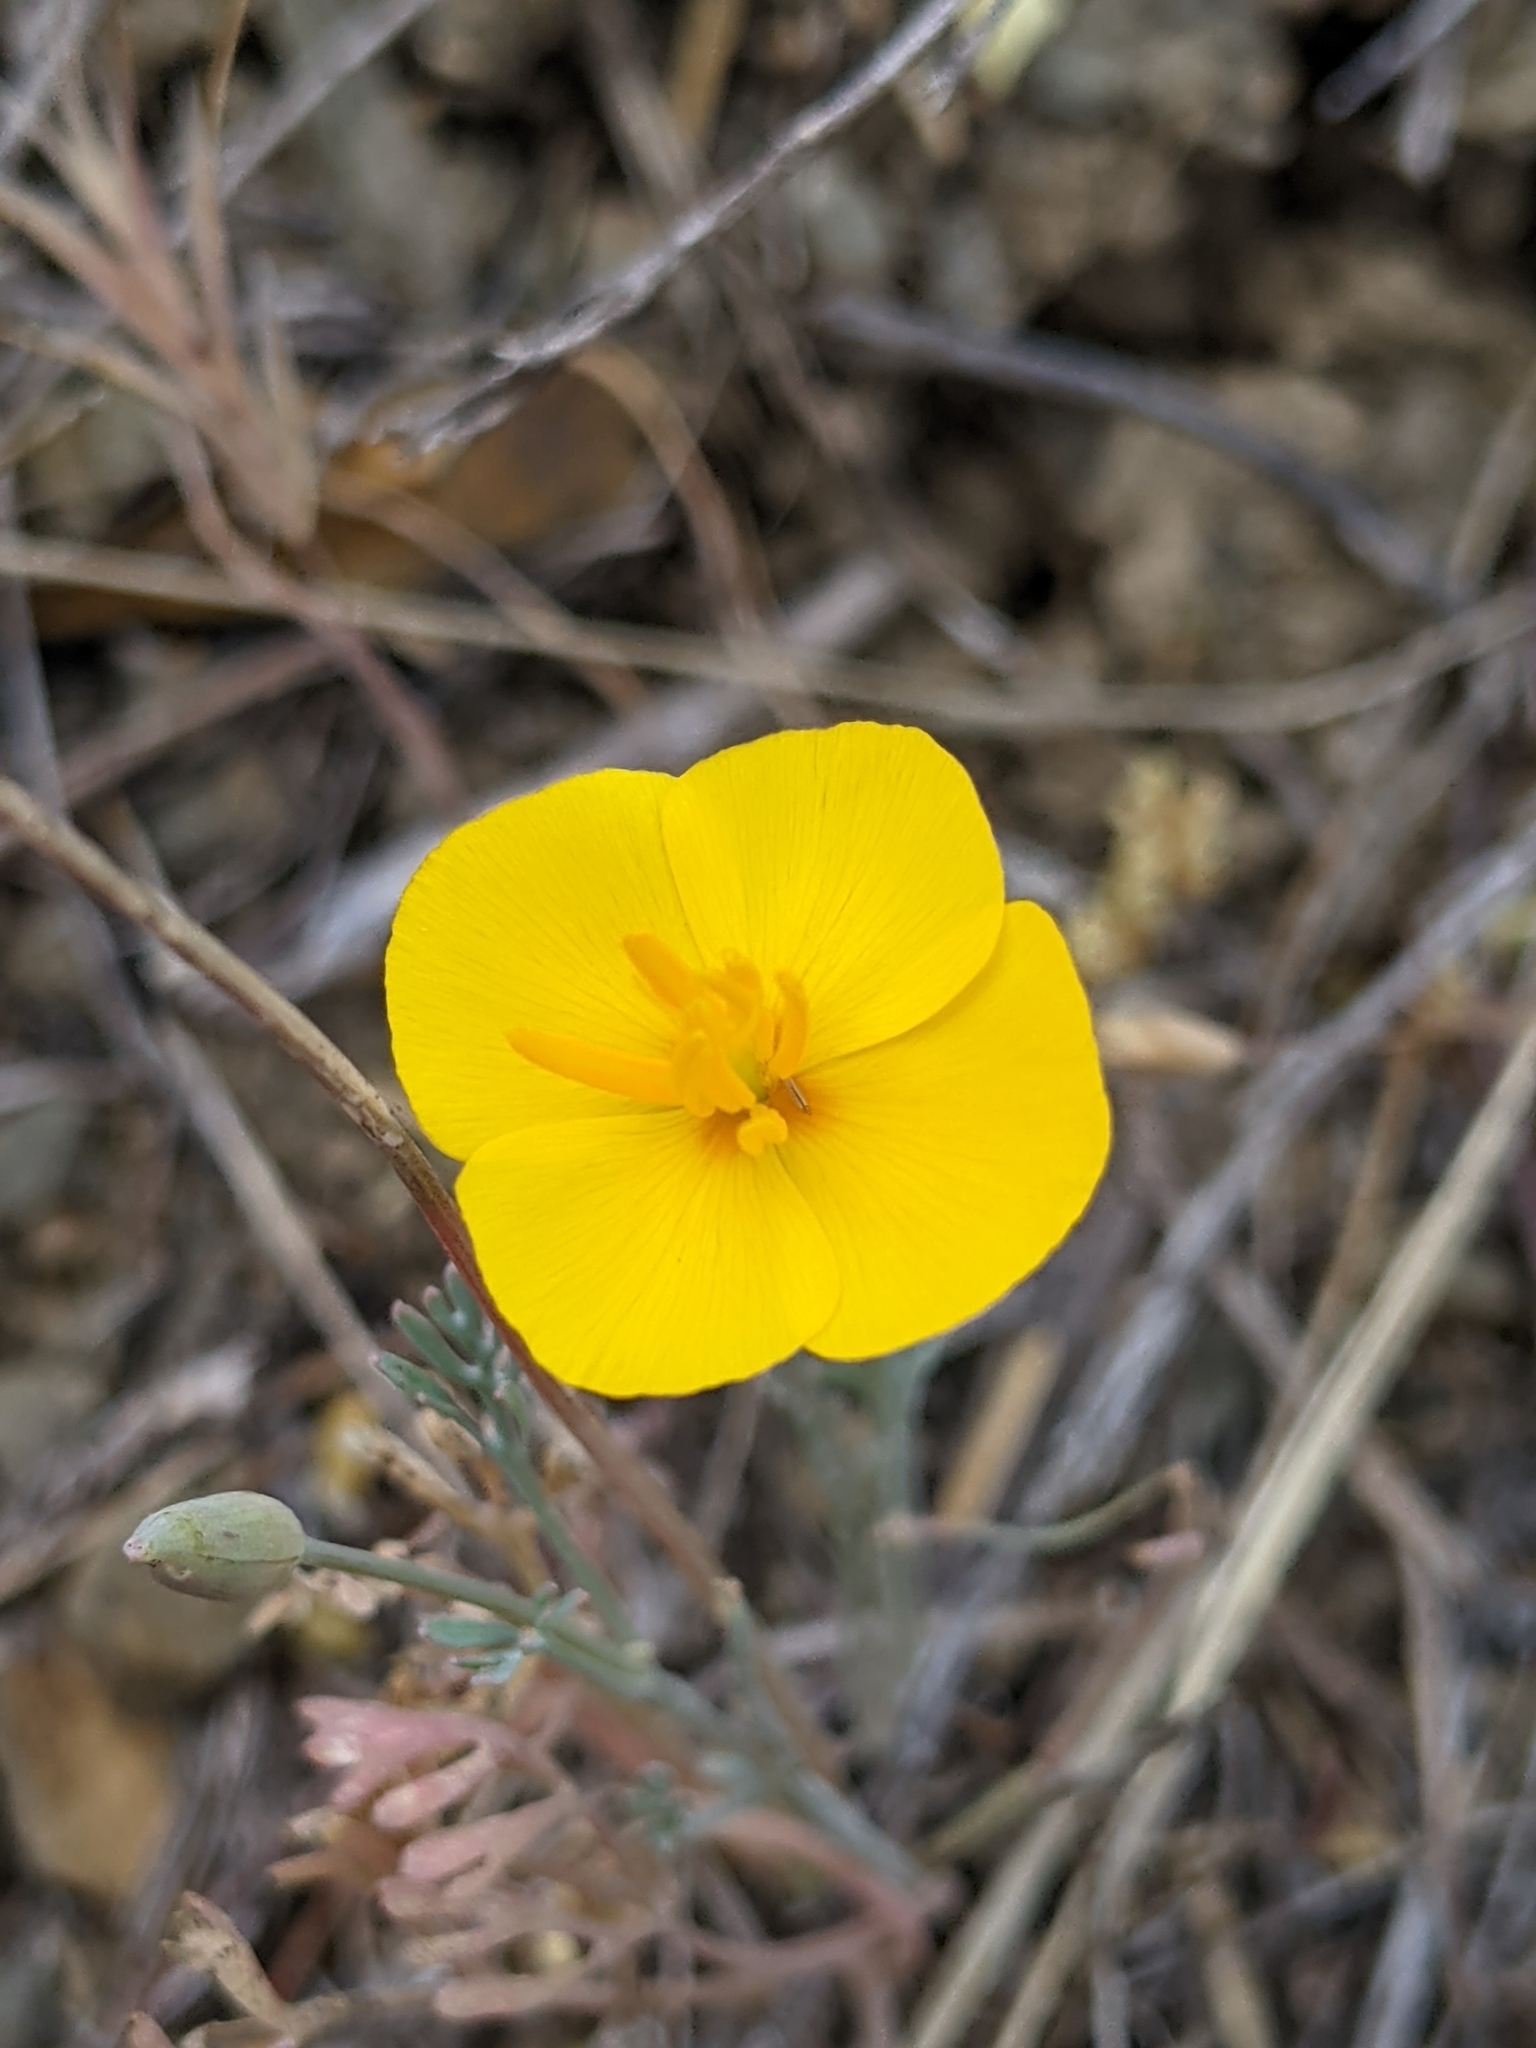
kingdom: Plantae
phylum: Tracheophyta
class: Magnoliopsida
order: Ranunculales
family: Papaveraceae
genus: Eschscholzia
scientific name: Eschscholzia caespitosa
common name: Tufted california-poppy
